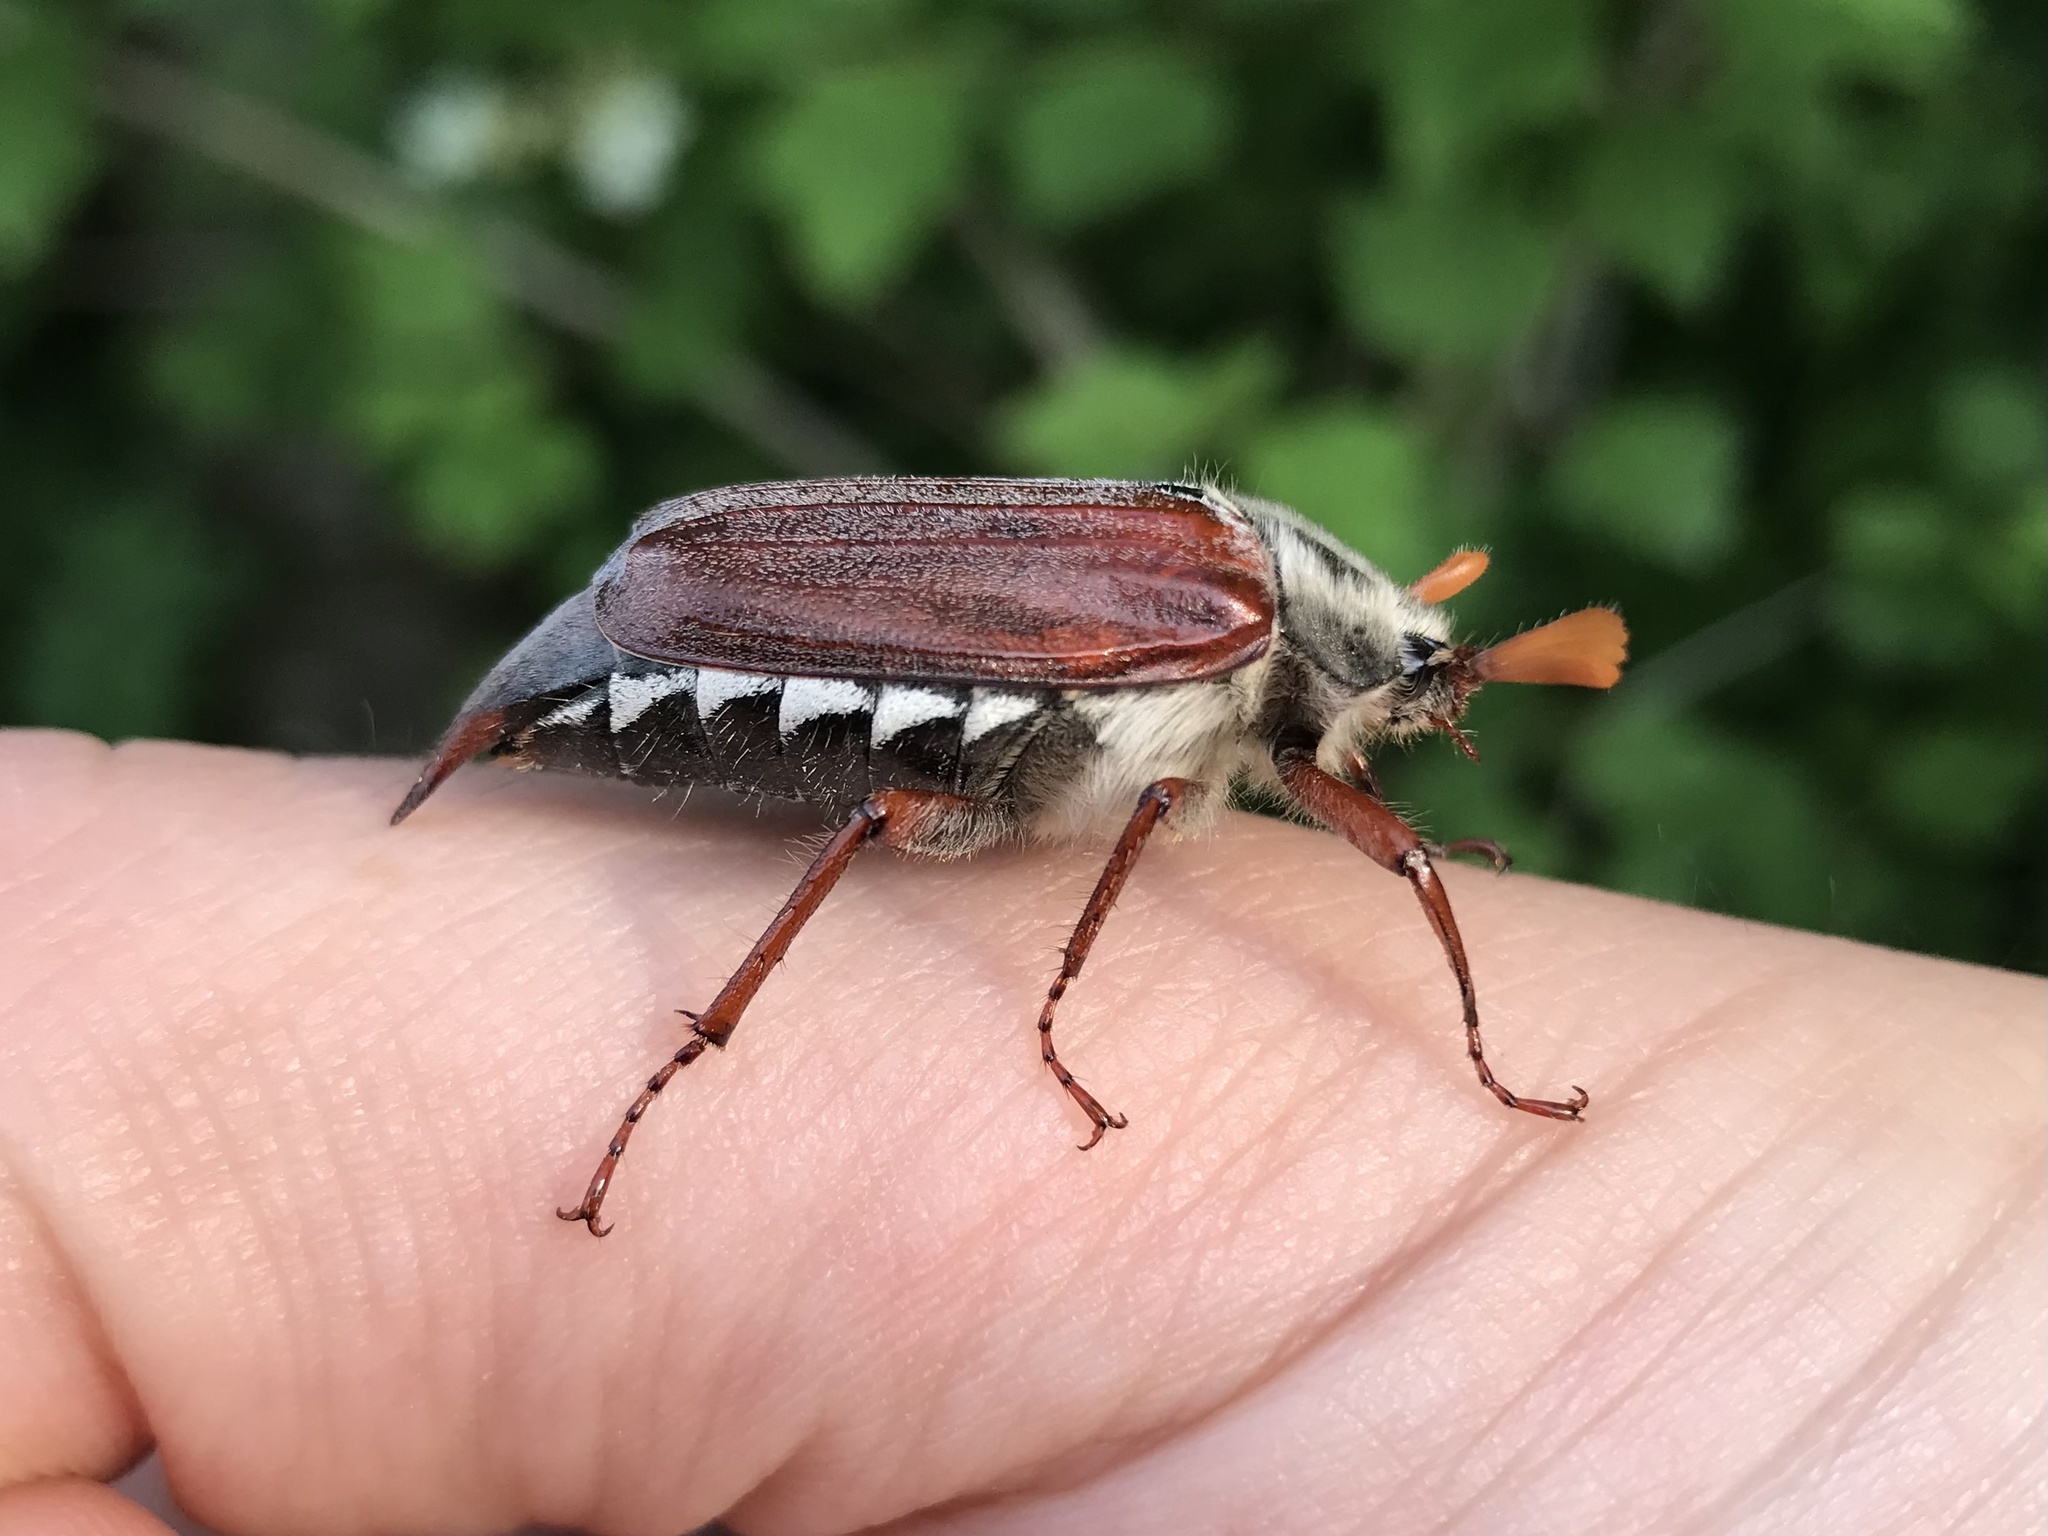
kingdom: Animalia
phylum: Arthropoda
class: Insecta
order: Coleoptera
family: Scarabaeidae
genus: Melolontha
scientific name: Melolontha melolontha
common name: Cockchafer maybeetle
